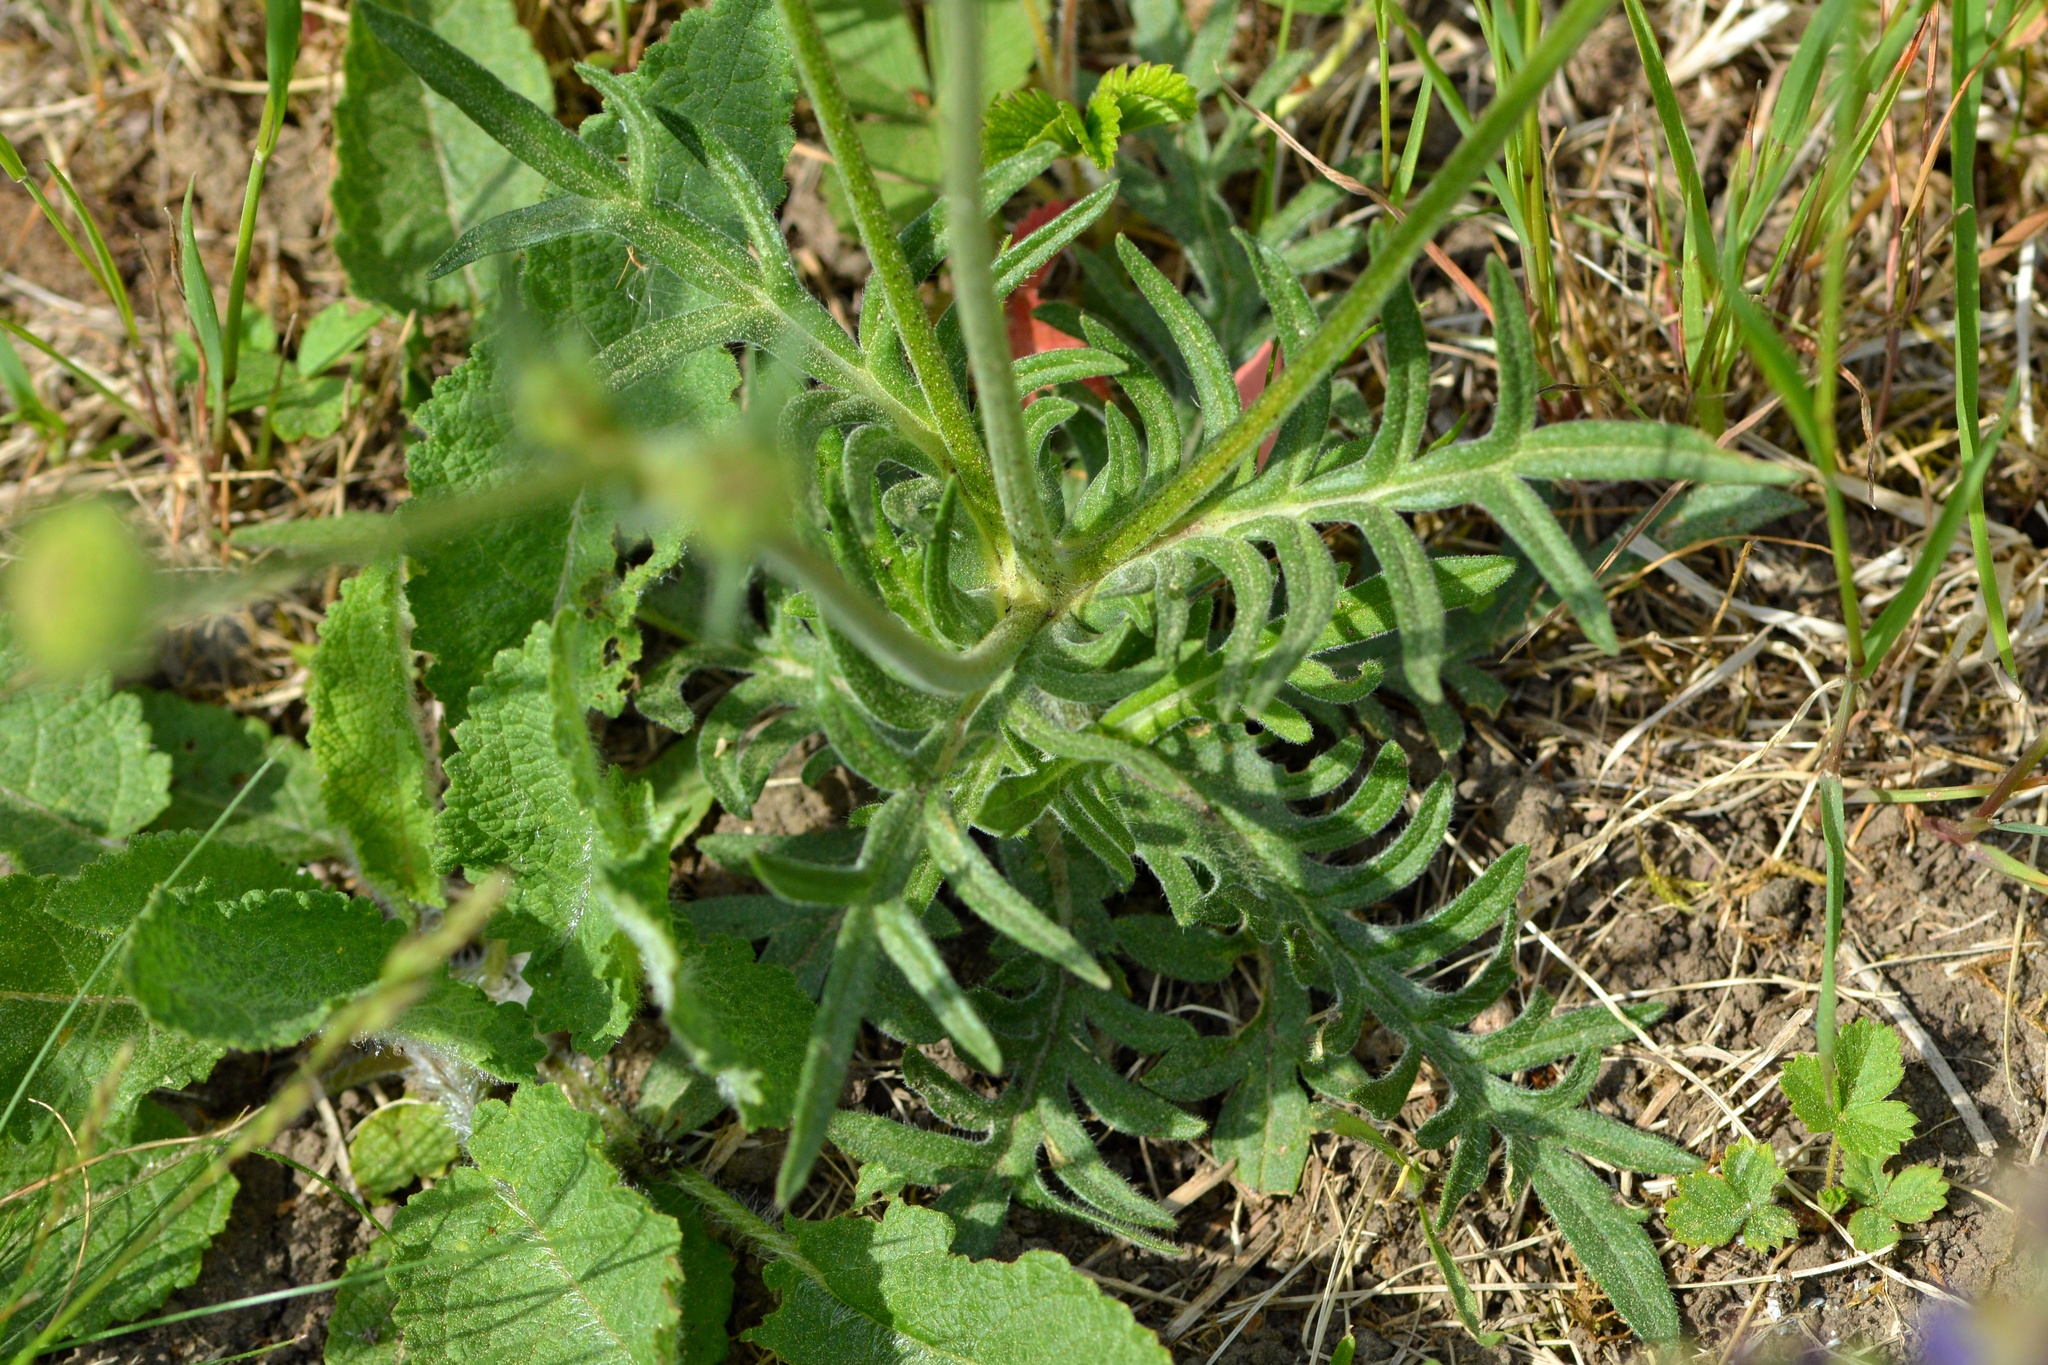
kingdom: Plantae
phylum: Tracheophyta
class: Magnoliopsida
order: Dipsacales
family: Caprifoliaceae
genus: Knautia
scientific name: Knautia arvensis
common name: Field scabiosa
